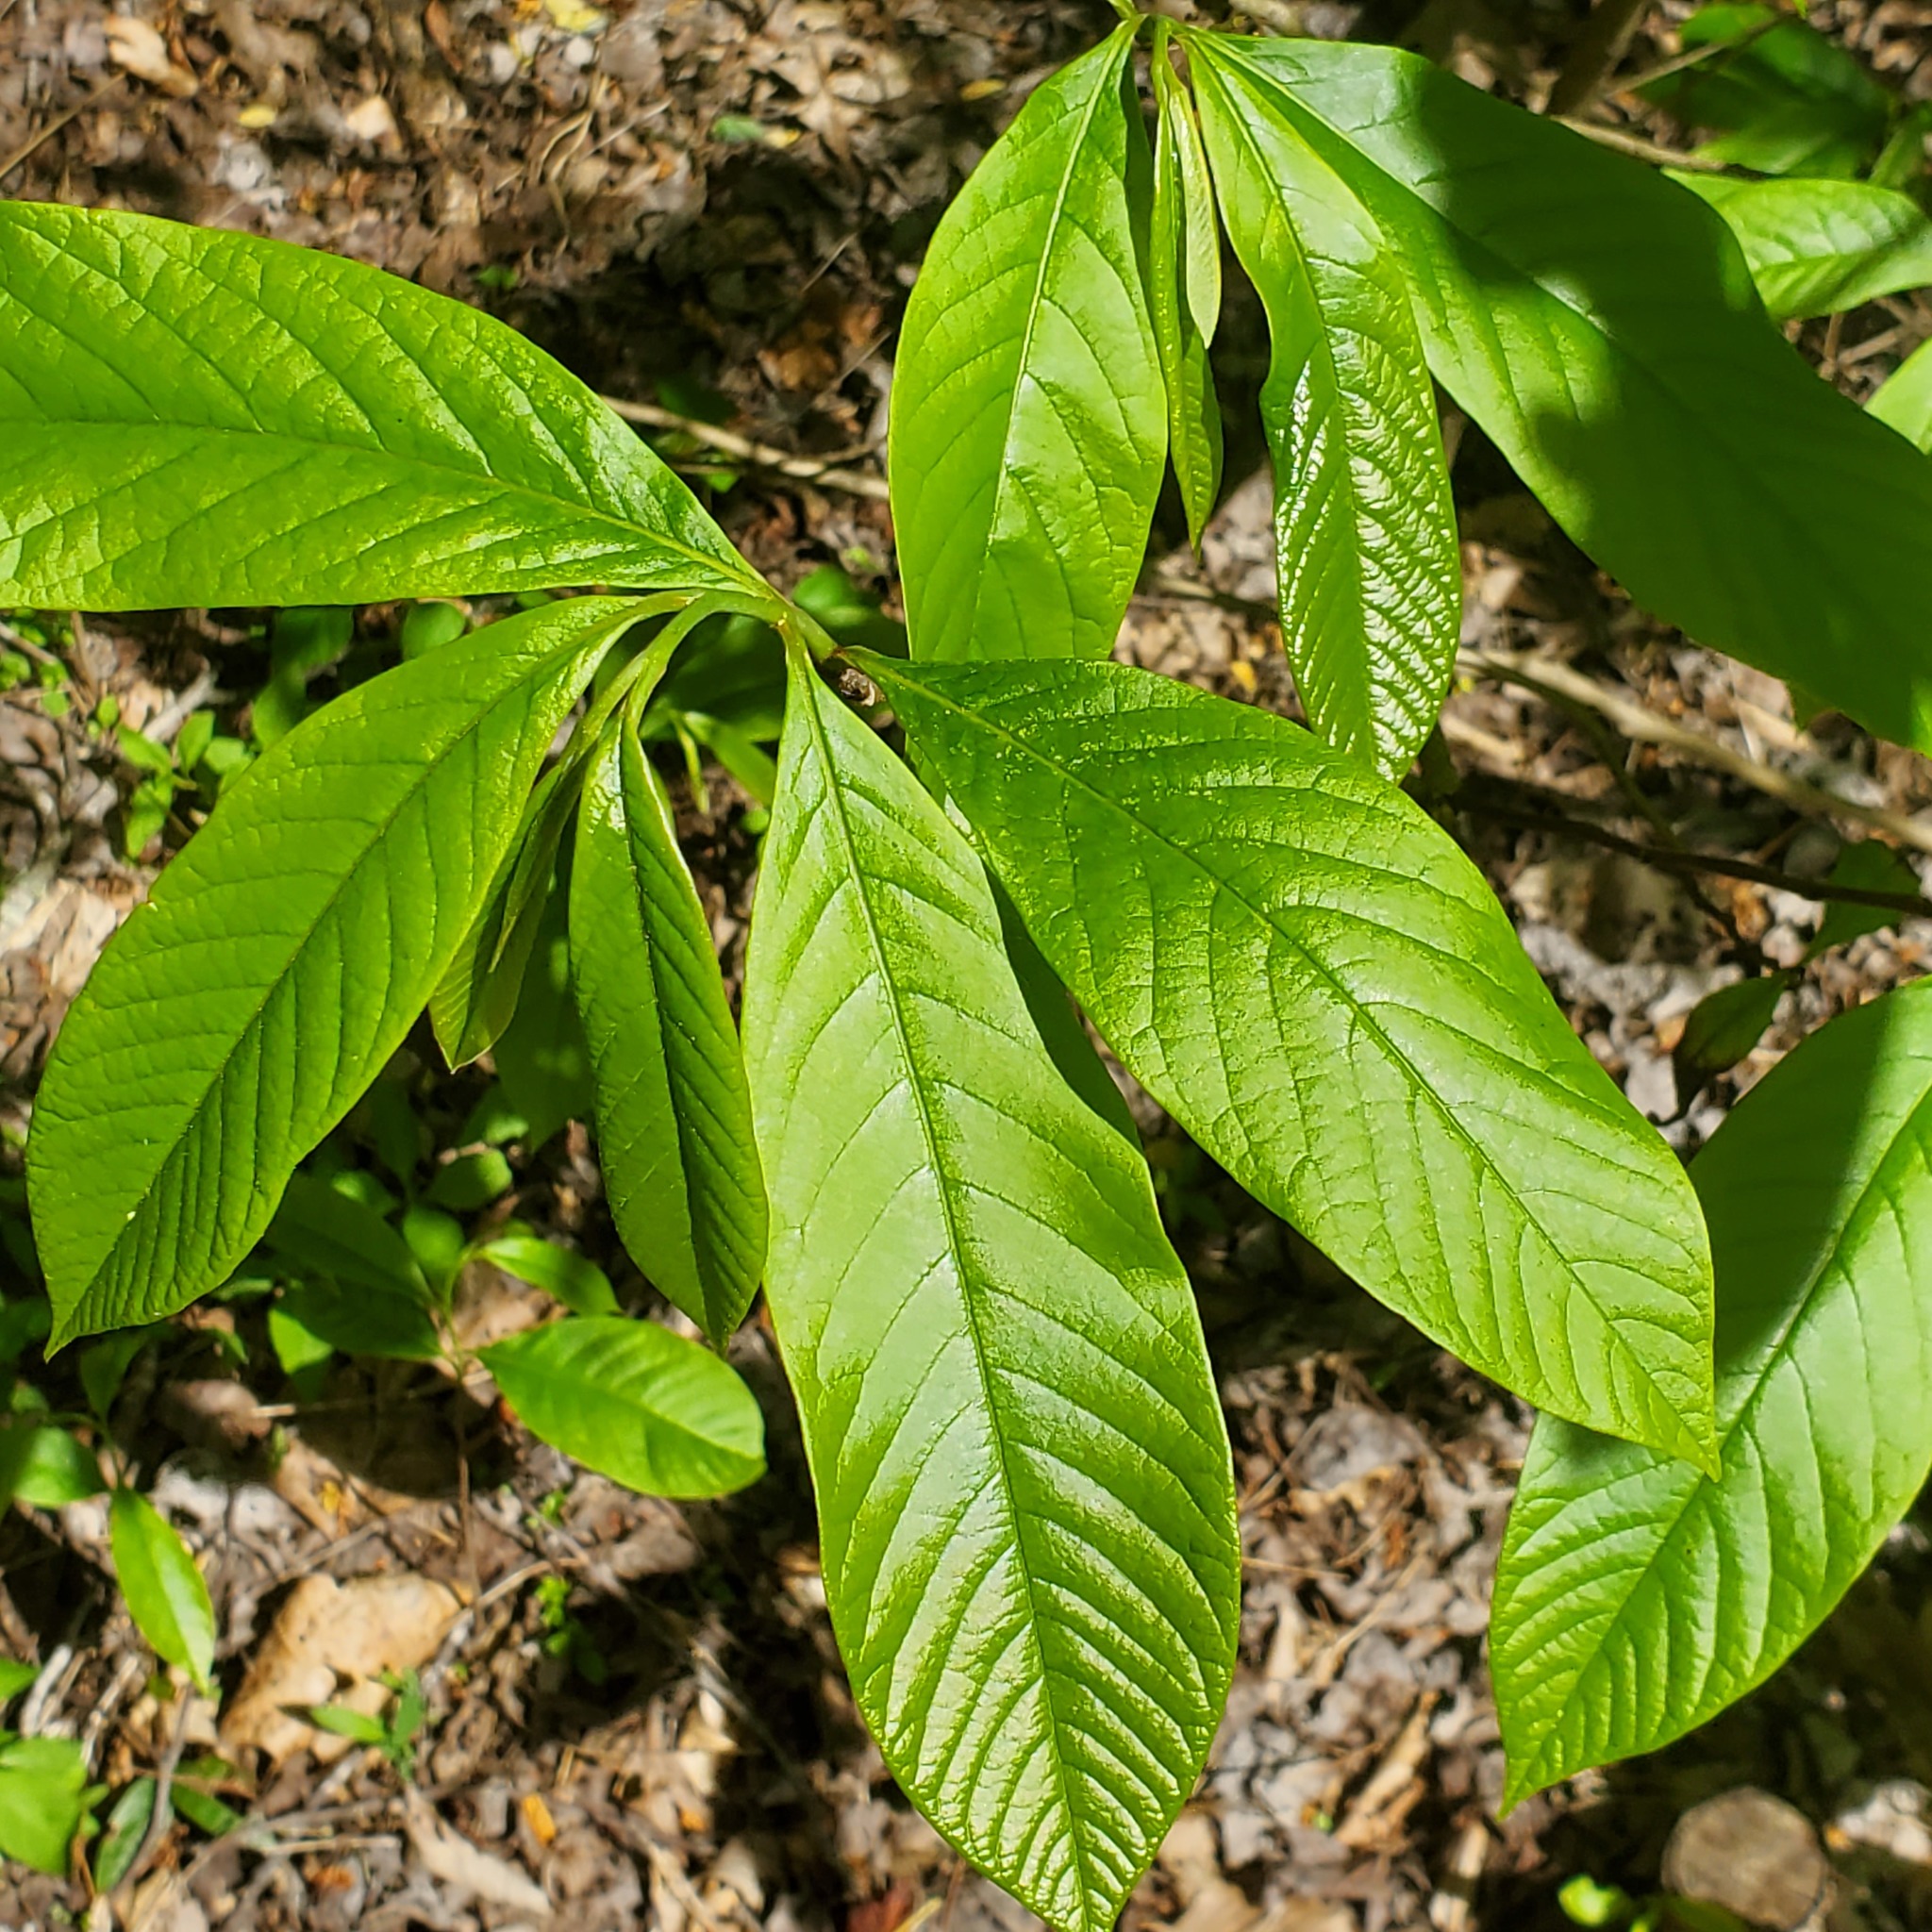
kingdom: Plantae
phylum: Tracheophyta
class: Magnoliopsida
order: Magnoliales
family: Annonaceae
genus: Asimina
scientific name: Asimina triloba
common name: Dog-banana
